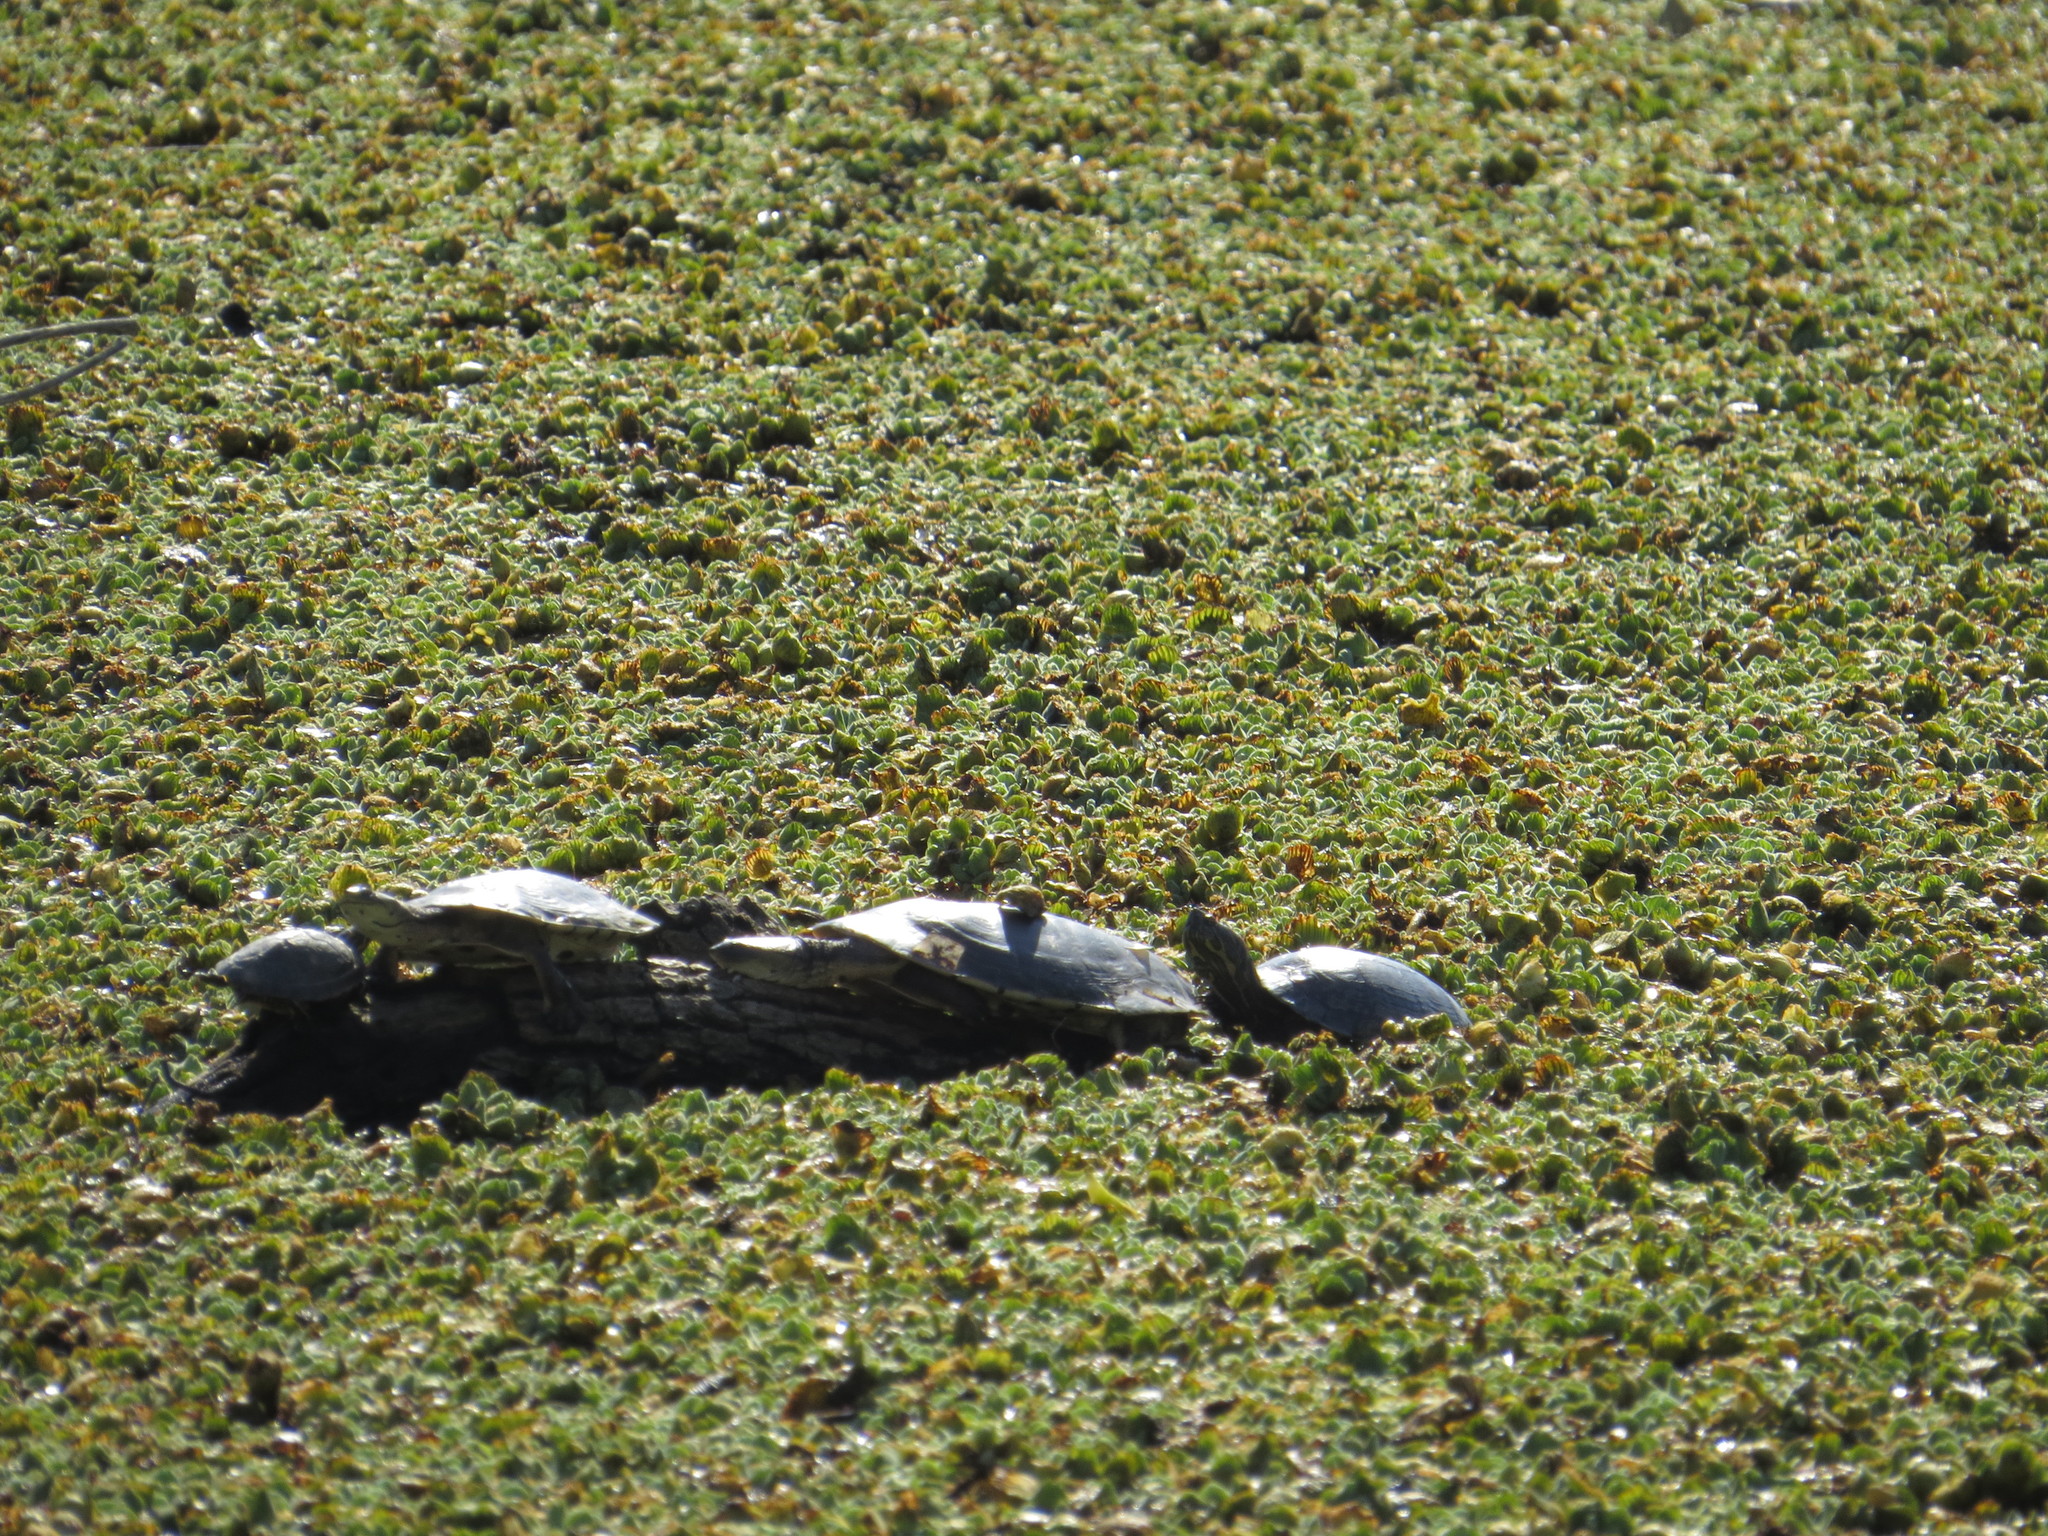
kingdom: Animalia
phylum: Chordata
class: Testudines
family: Emydidae
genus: Trachemys
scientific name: Trachemys dorbigni
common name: Black-bellied slider
